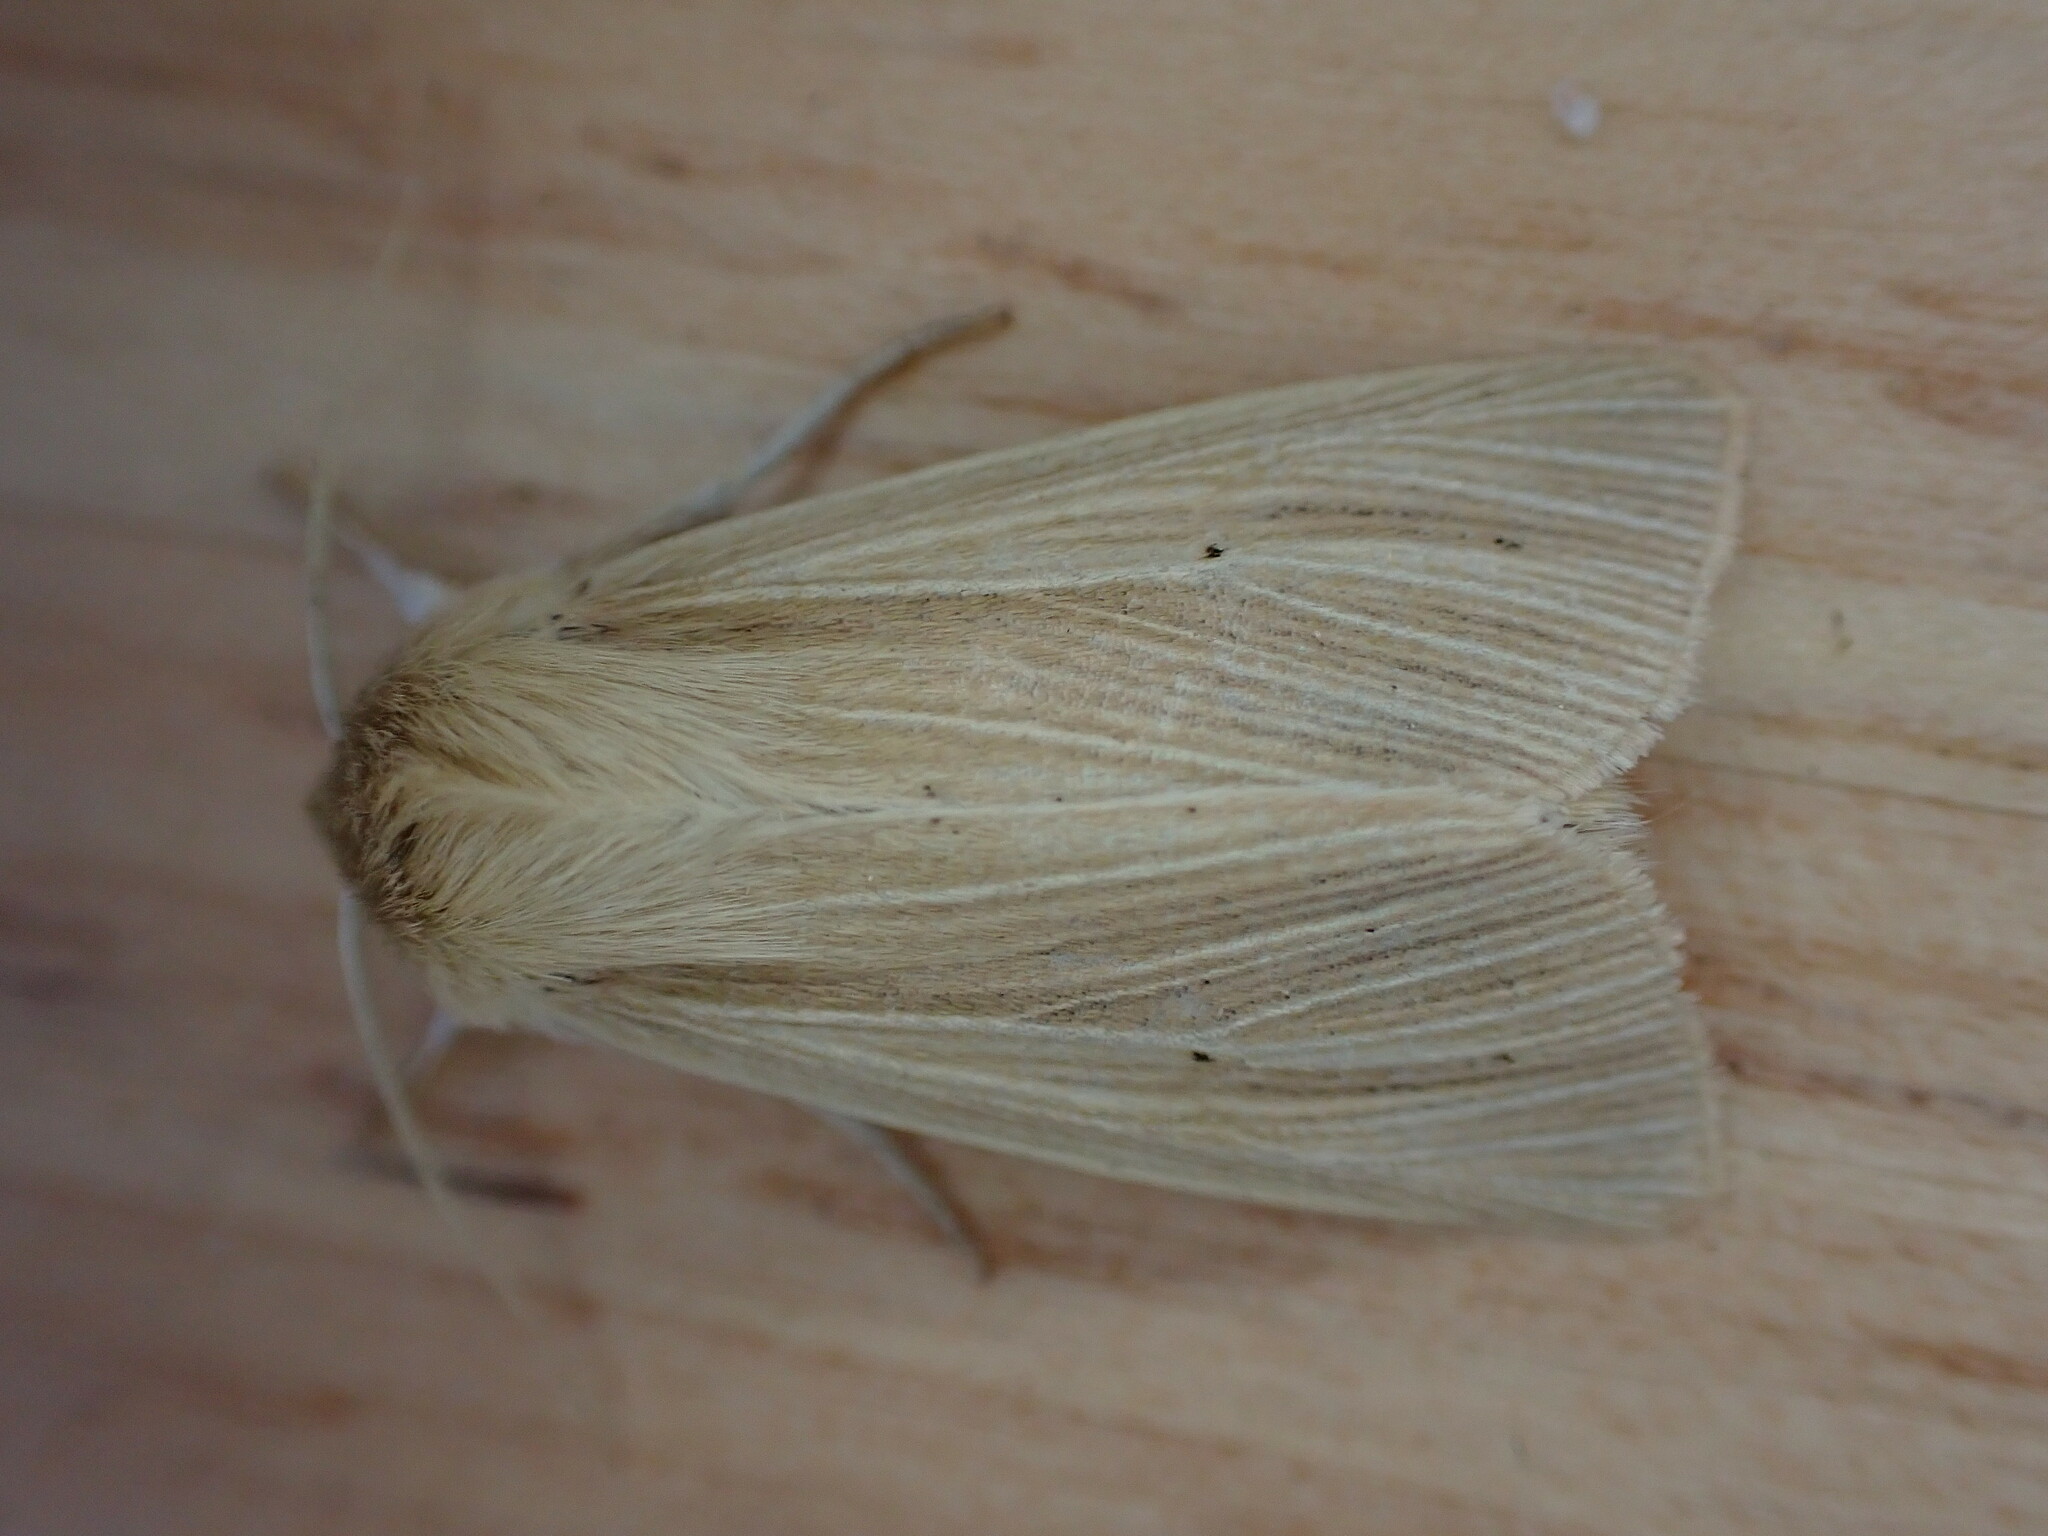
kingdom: Animalia
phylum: Arthropoda
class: Insecta
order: Lepidoptera
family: Noctuidae
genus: Mythimna
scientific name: Mythimna pallens
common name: Common wainscot
